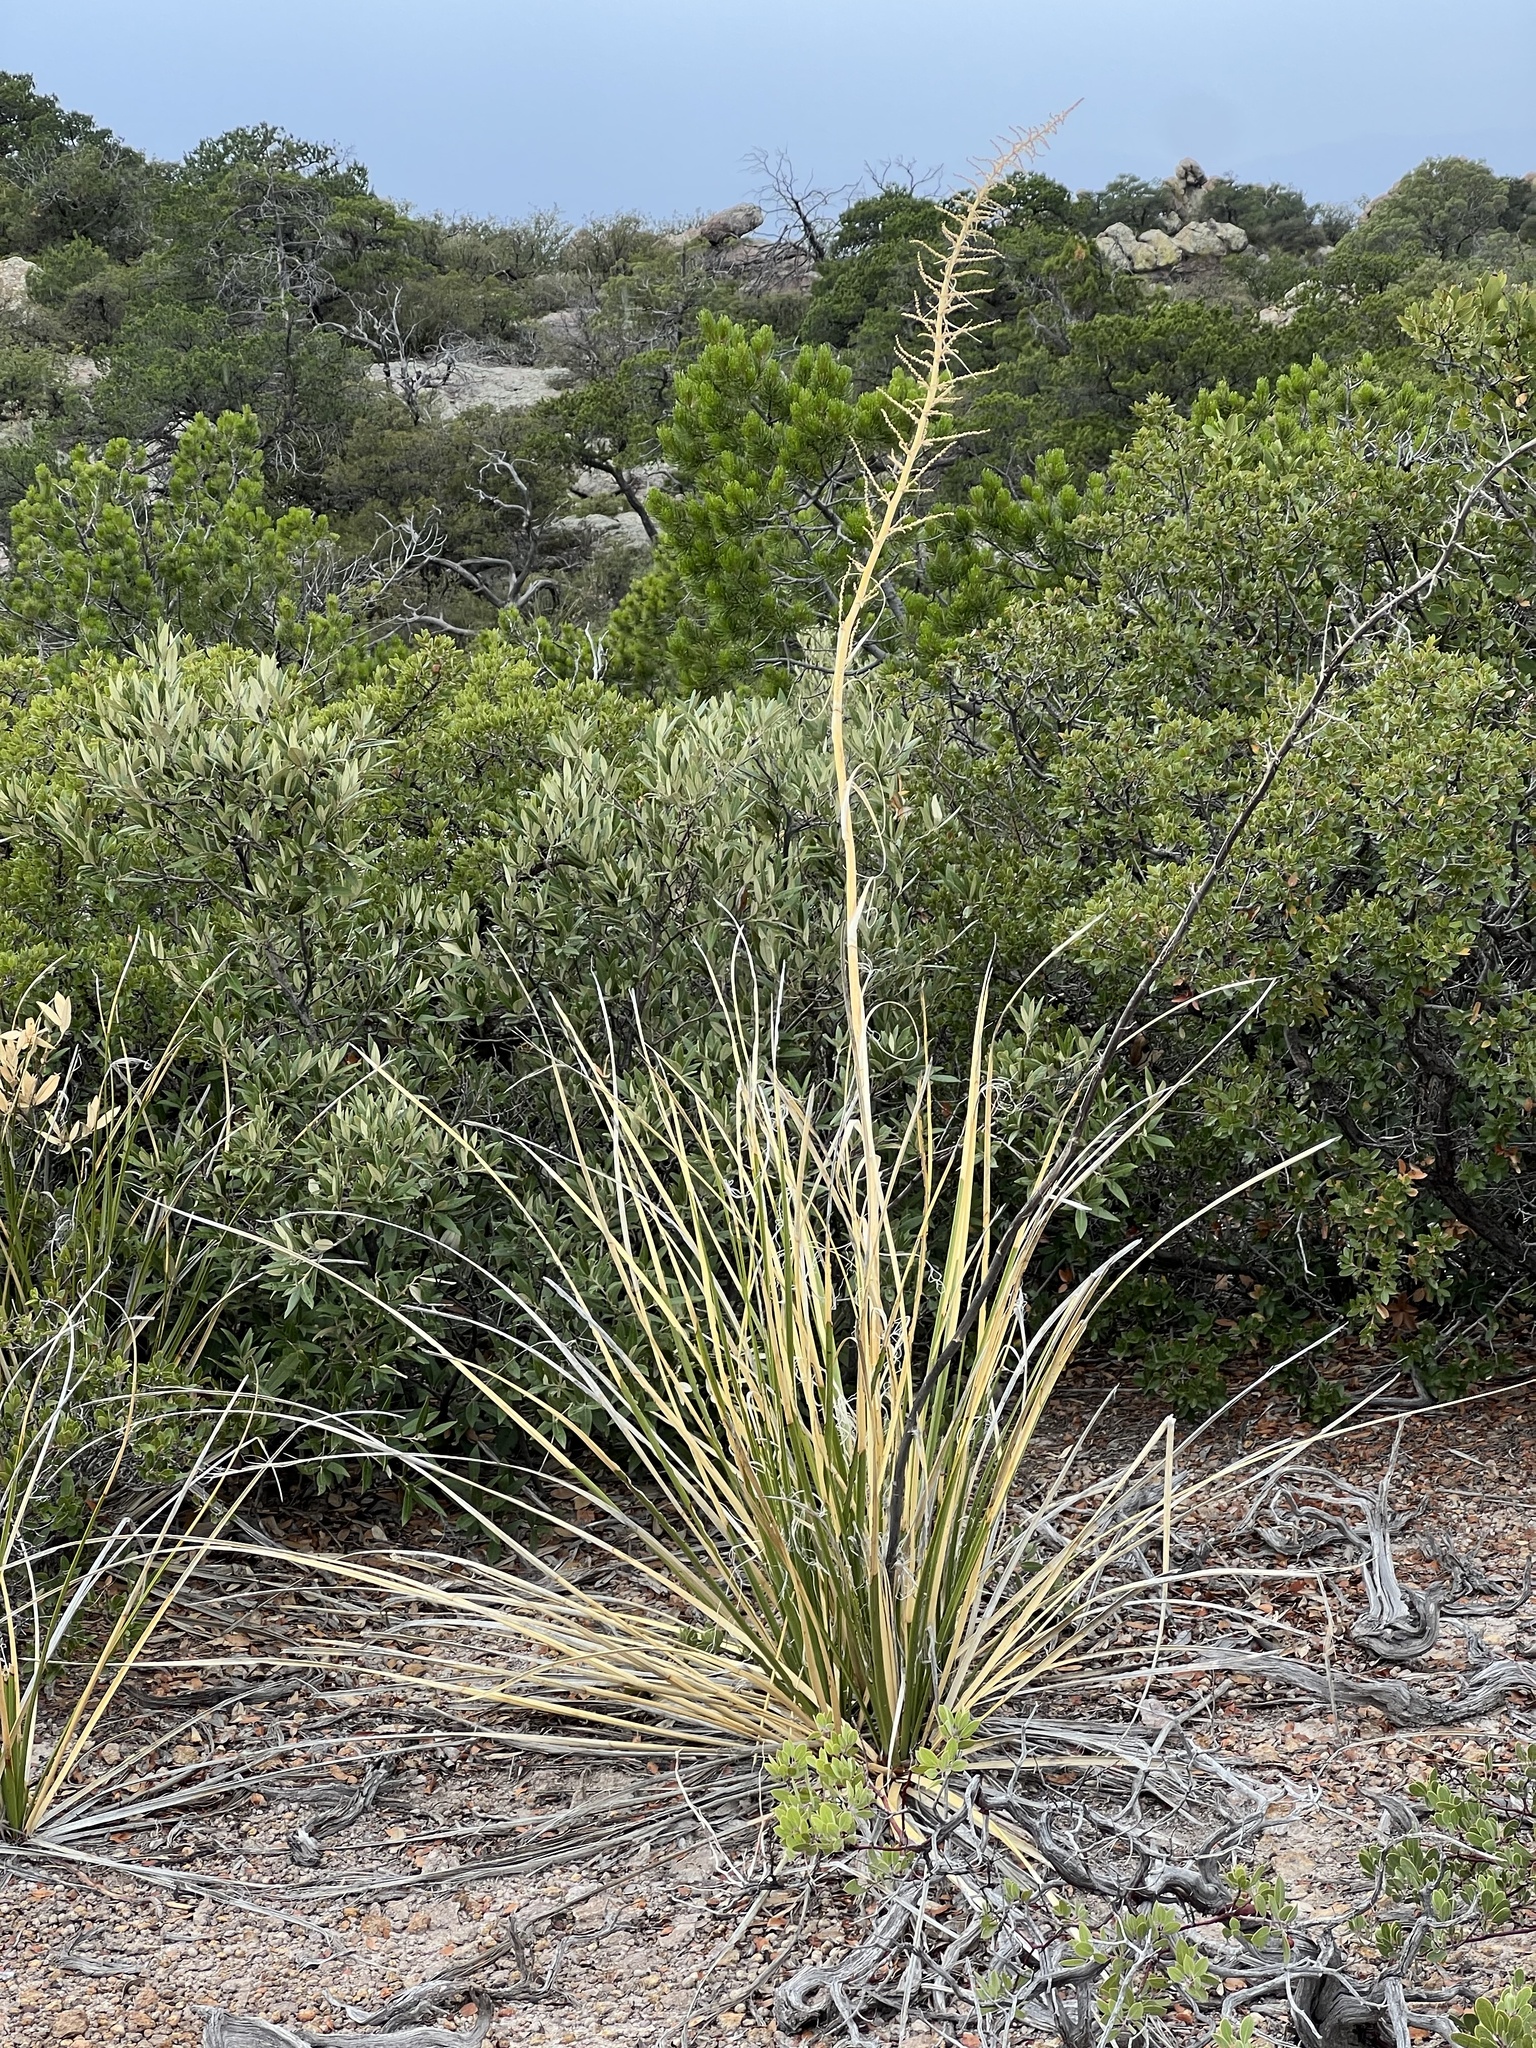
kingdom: Plantae
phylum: Tracheophyta
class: Liliopsida
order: Asparagales
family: Asparagaceae
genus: Nolina
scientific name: Nolina microcarpa
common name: Bear-grass
